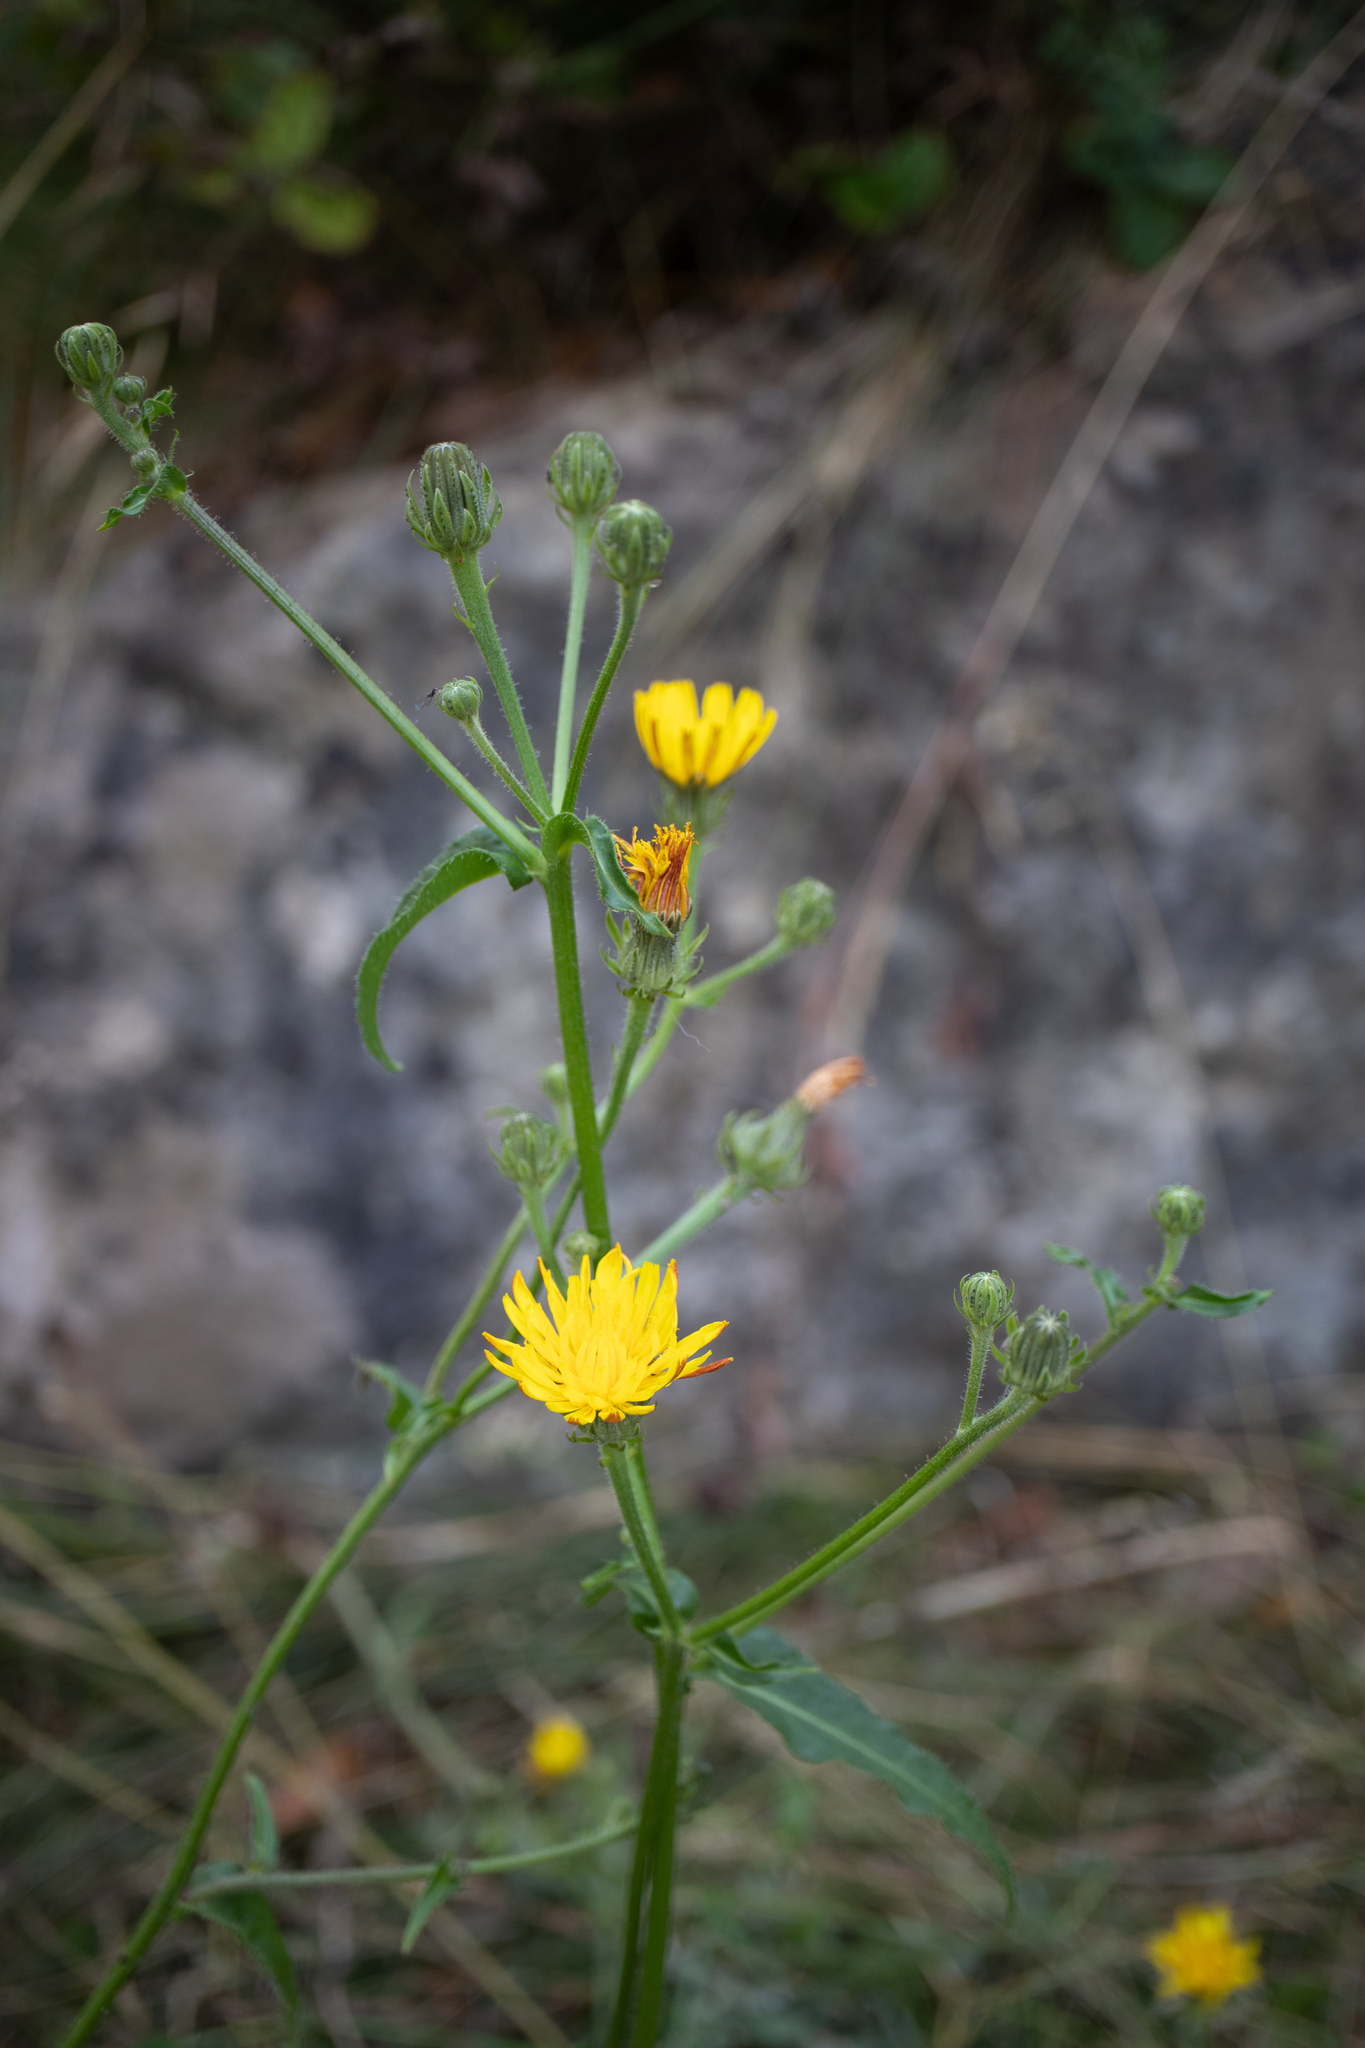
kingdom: Plantae
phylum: Tracheophyta
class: Magnoliopsida
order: Asterales
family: Asteraceae
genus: Picris
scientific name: Picris hieracioides
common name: Hawkweed oxtongue
